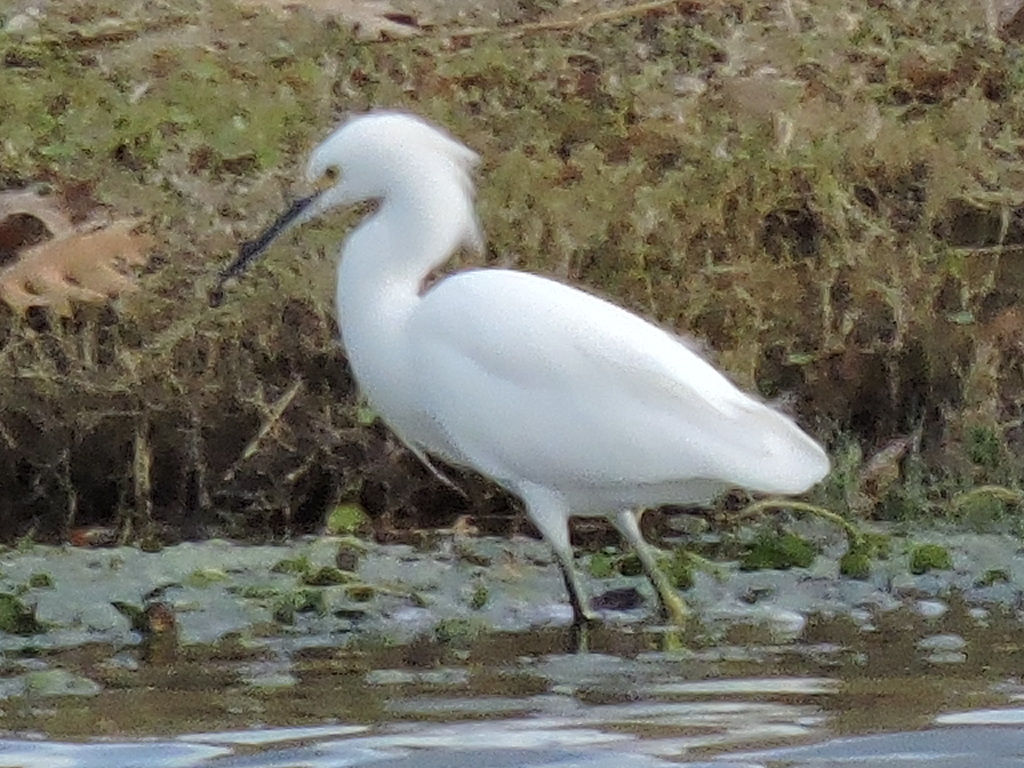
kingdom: Animalia
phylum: Chordata
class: Aves
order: Pelecaniformes
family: Ardeidae
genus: Egretta
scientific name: Egretta thula
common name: Snowy egret
